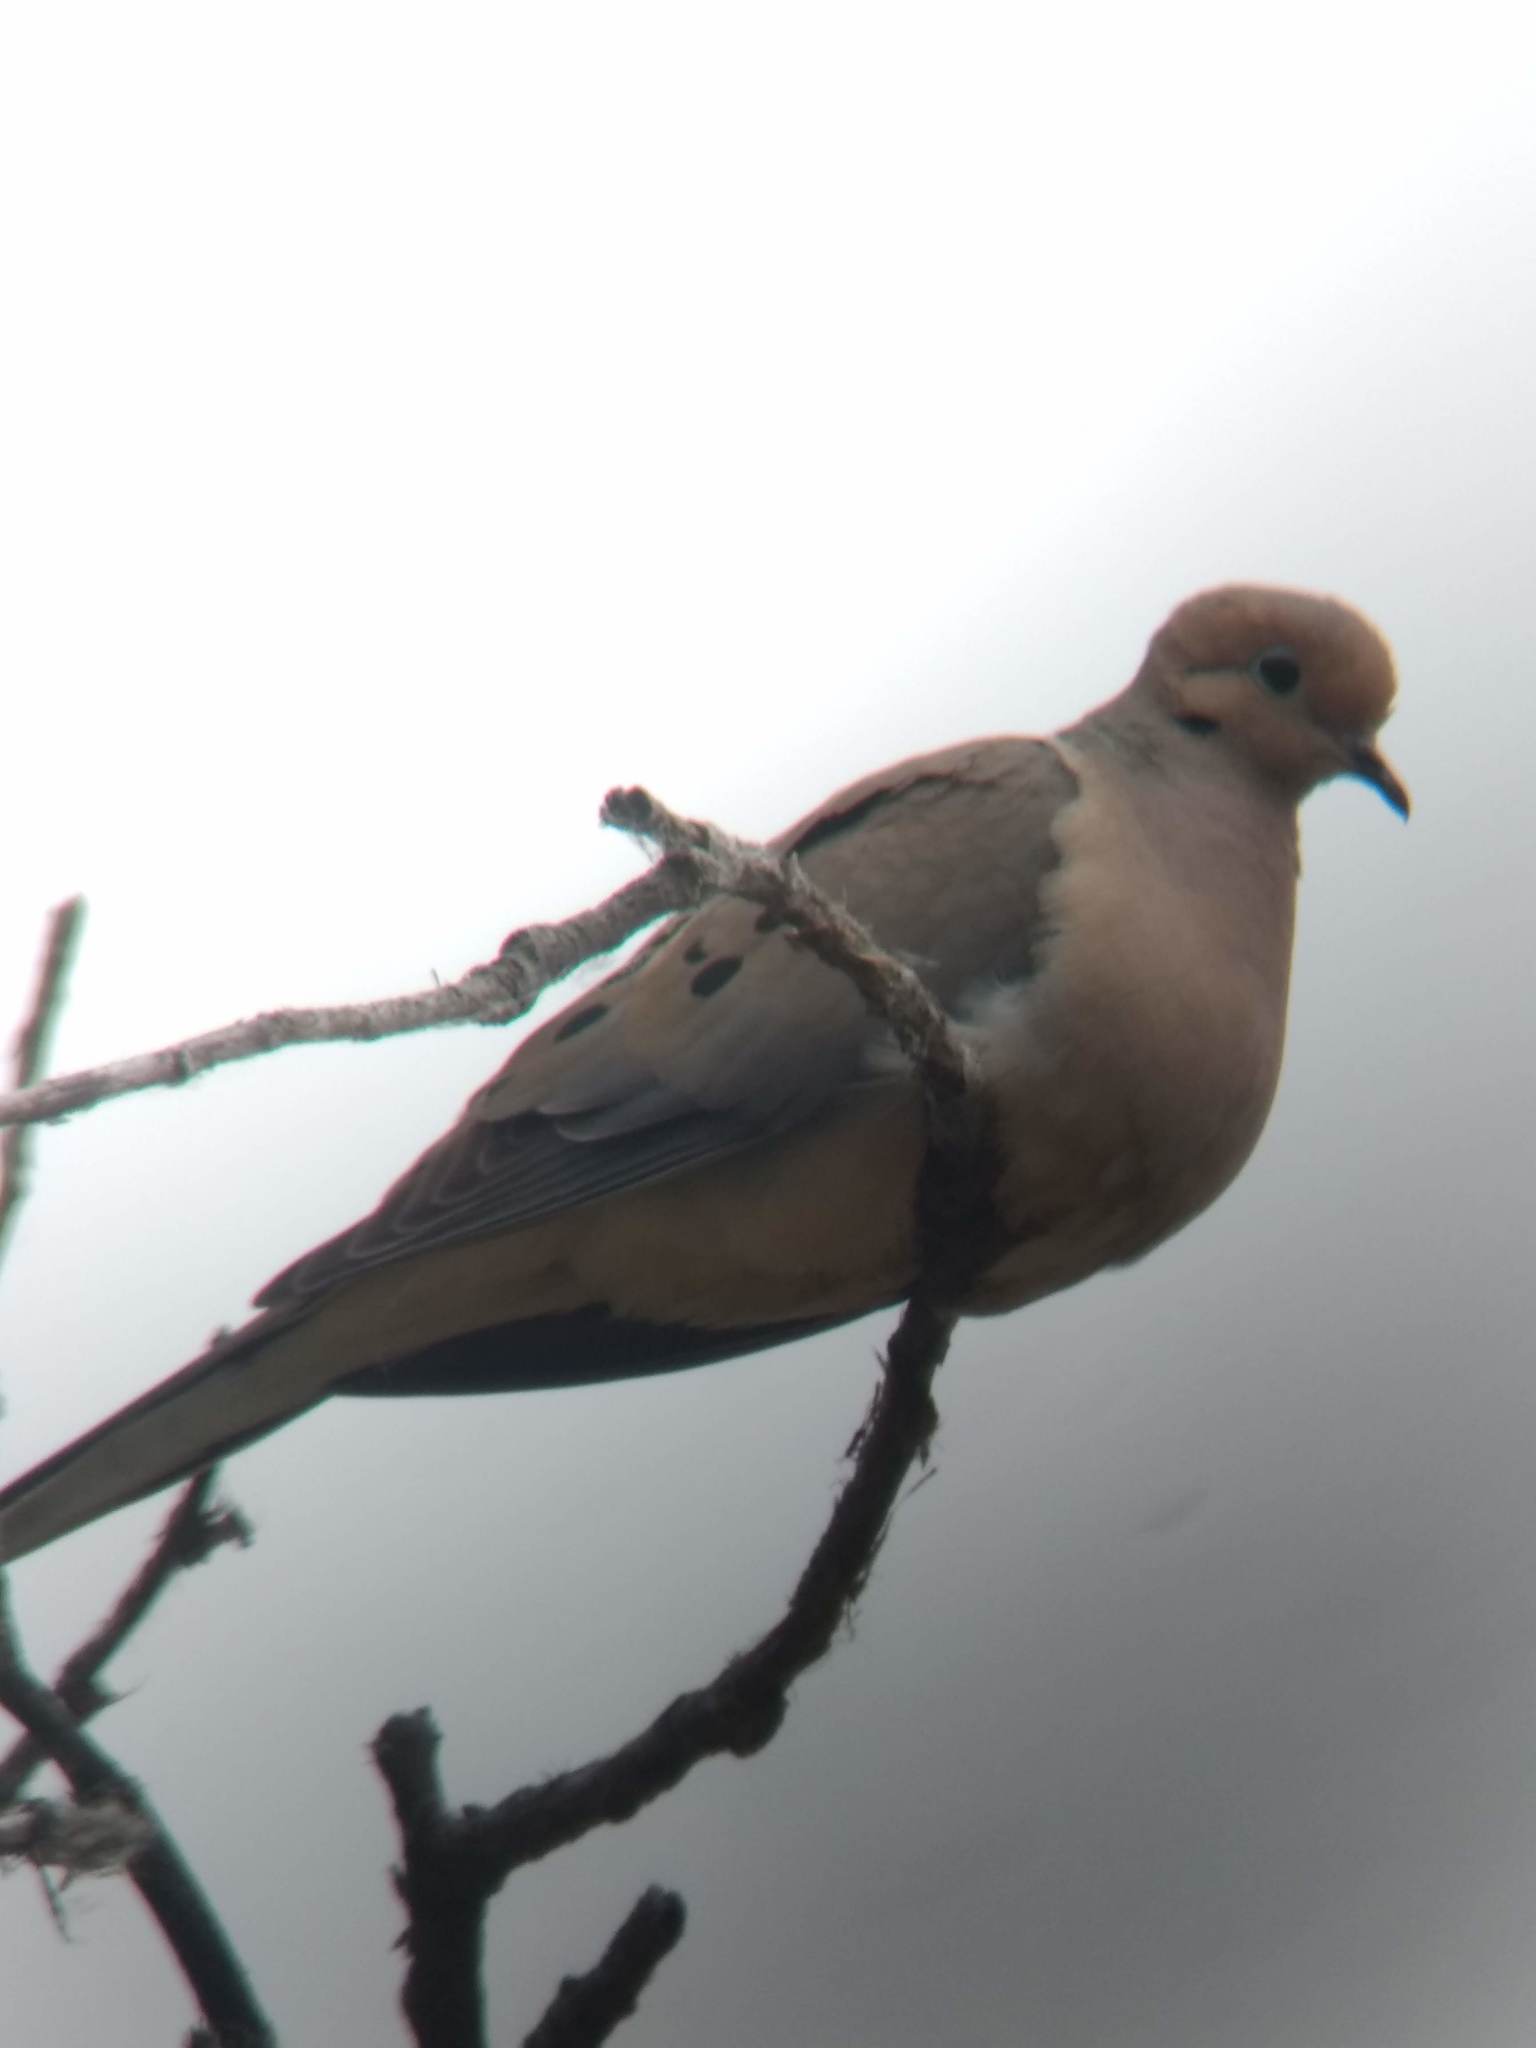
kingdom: Animalia
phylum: Chordata
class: Aves
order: Columbiformes
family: Columbidae
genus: Zenaida
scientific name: Zenaida macroura
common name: Mourning dove
